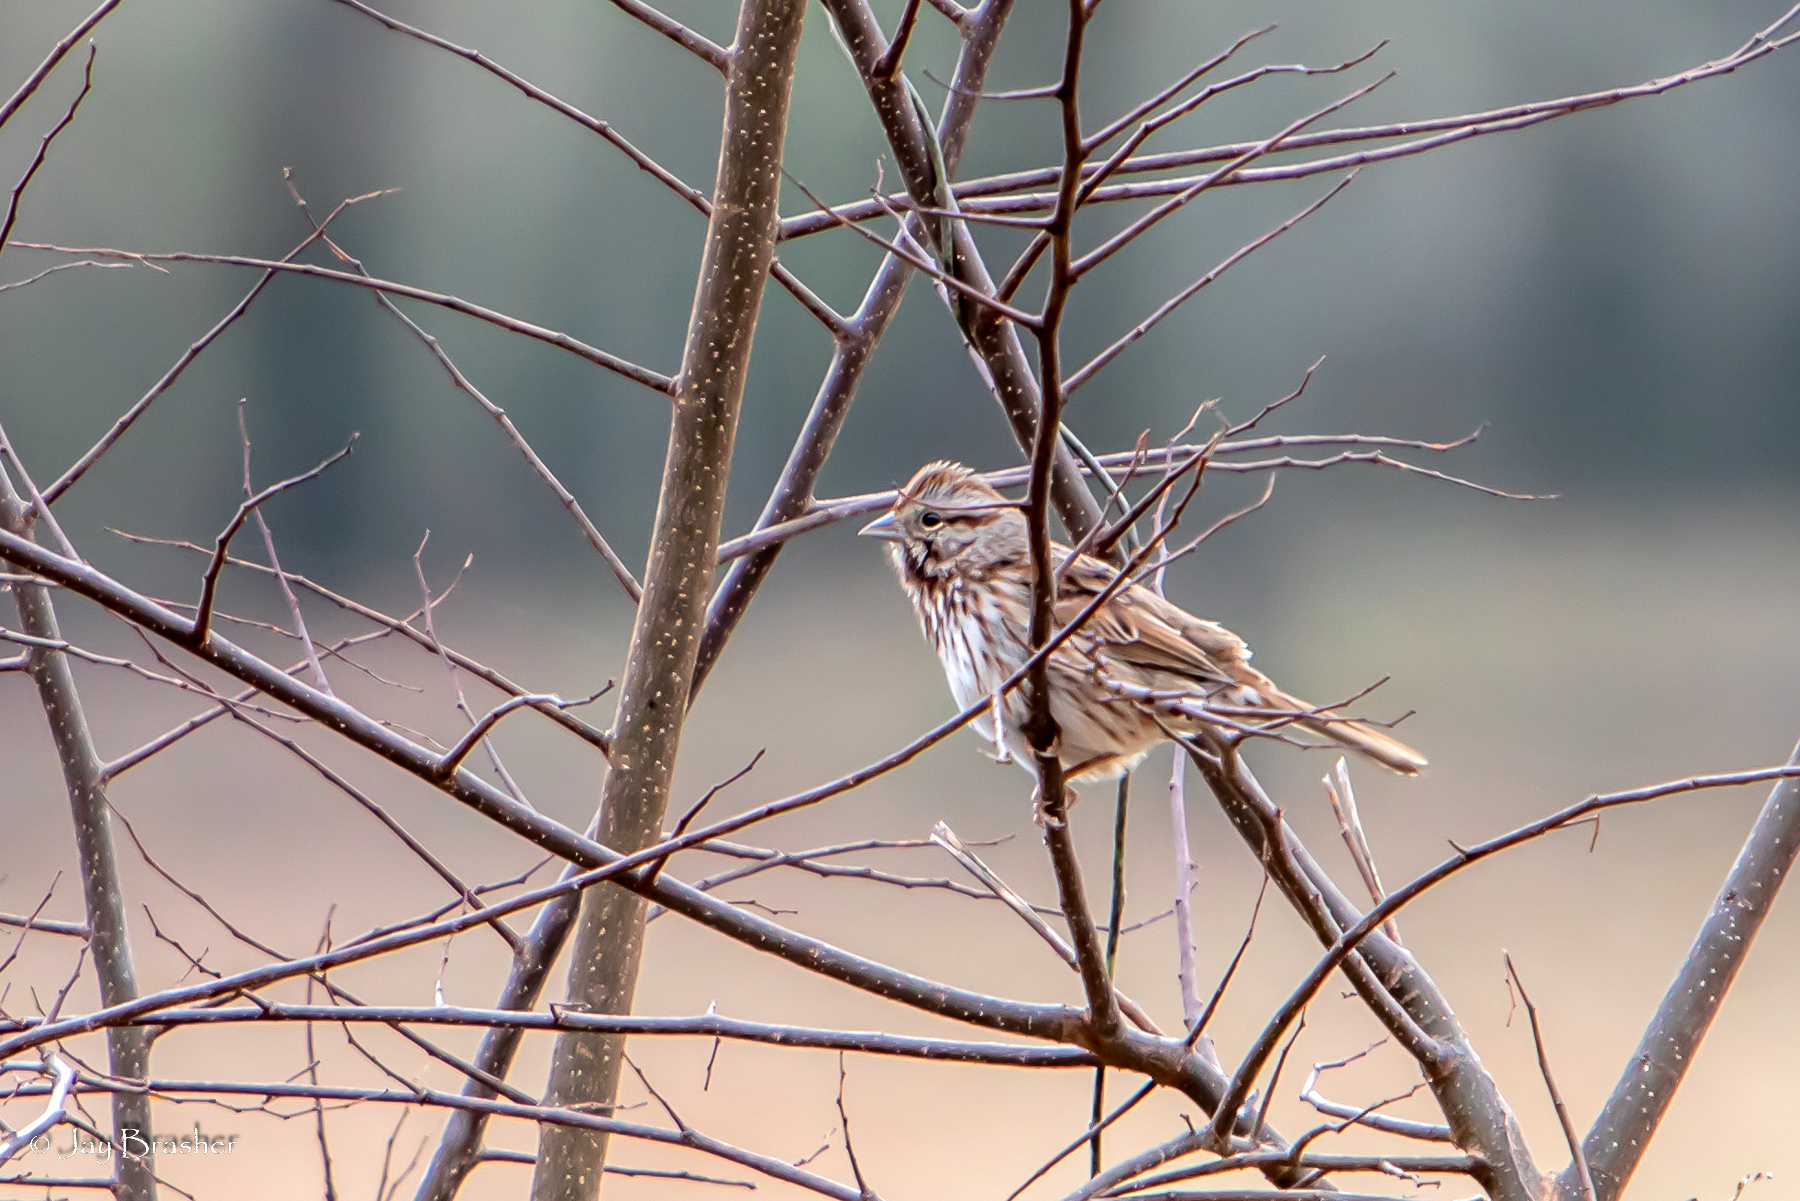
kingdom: Animalia
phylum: Chordata
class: Aves
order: Passeriformes
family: Passerellidae
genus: Melospiza
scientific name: Melospiza melodia
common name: Song sparrow
